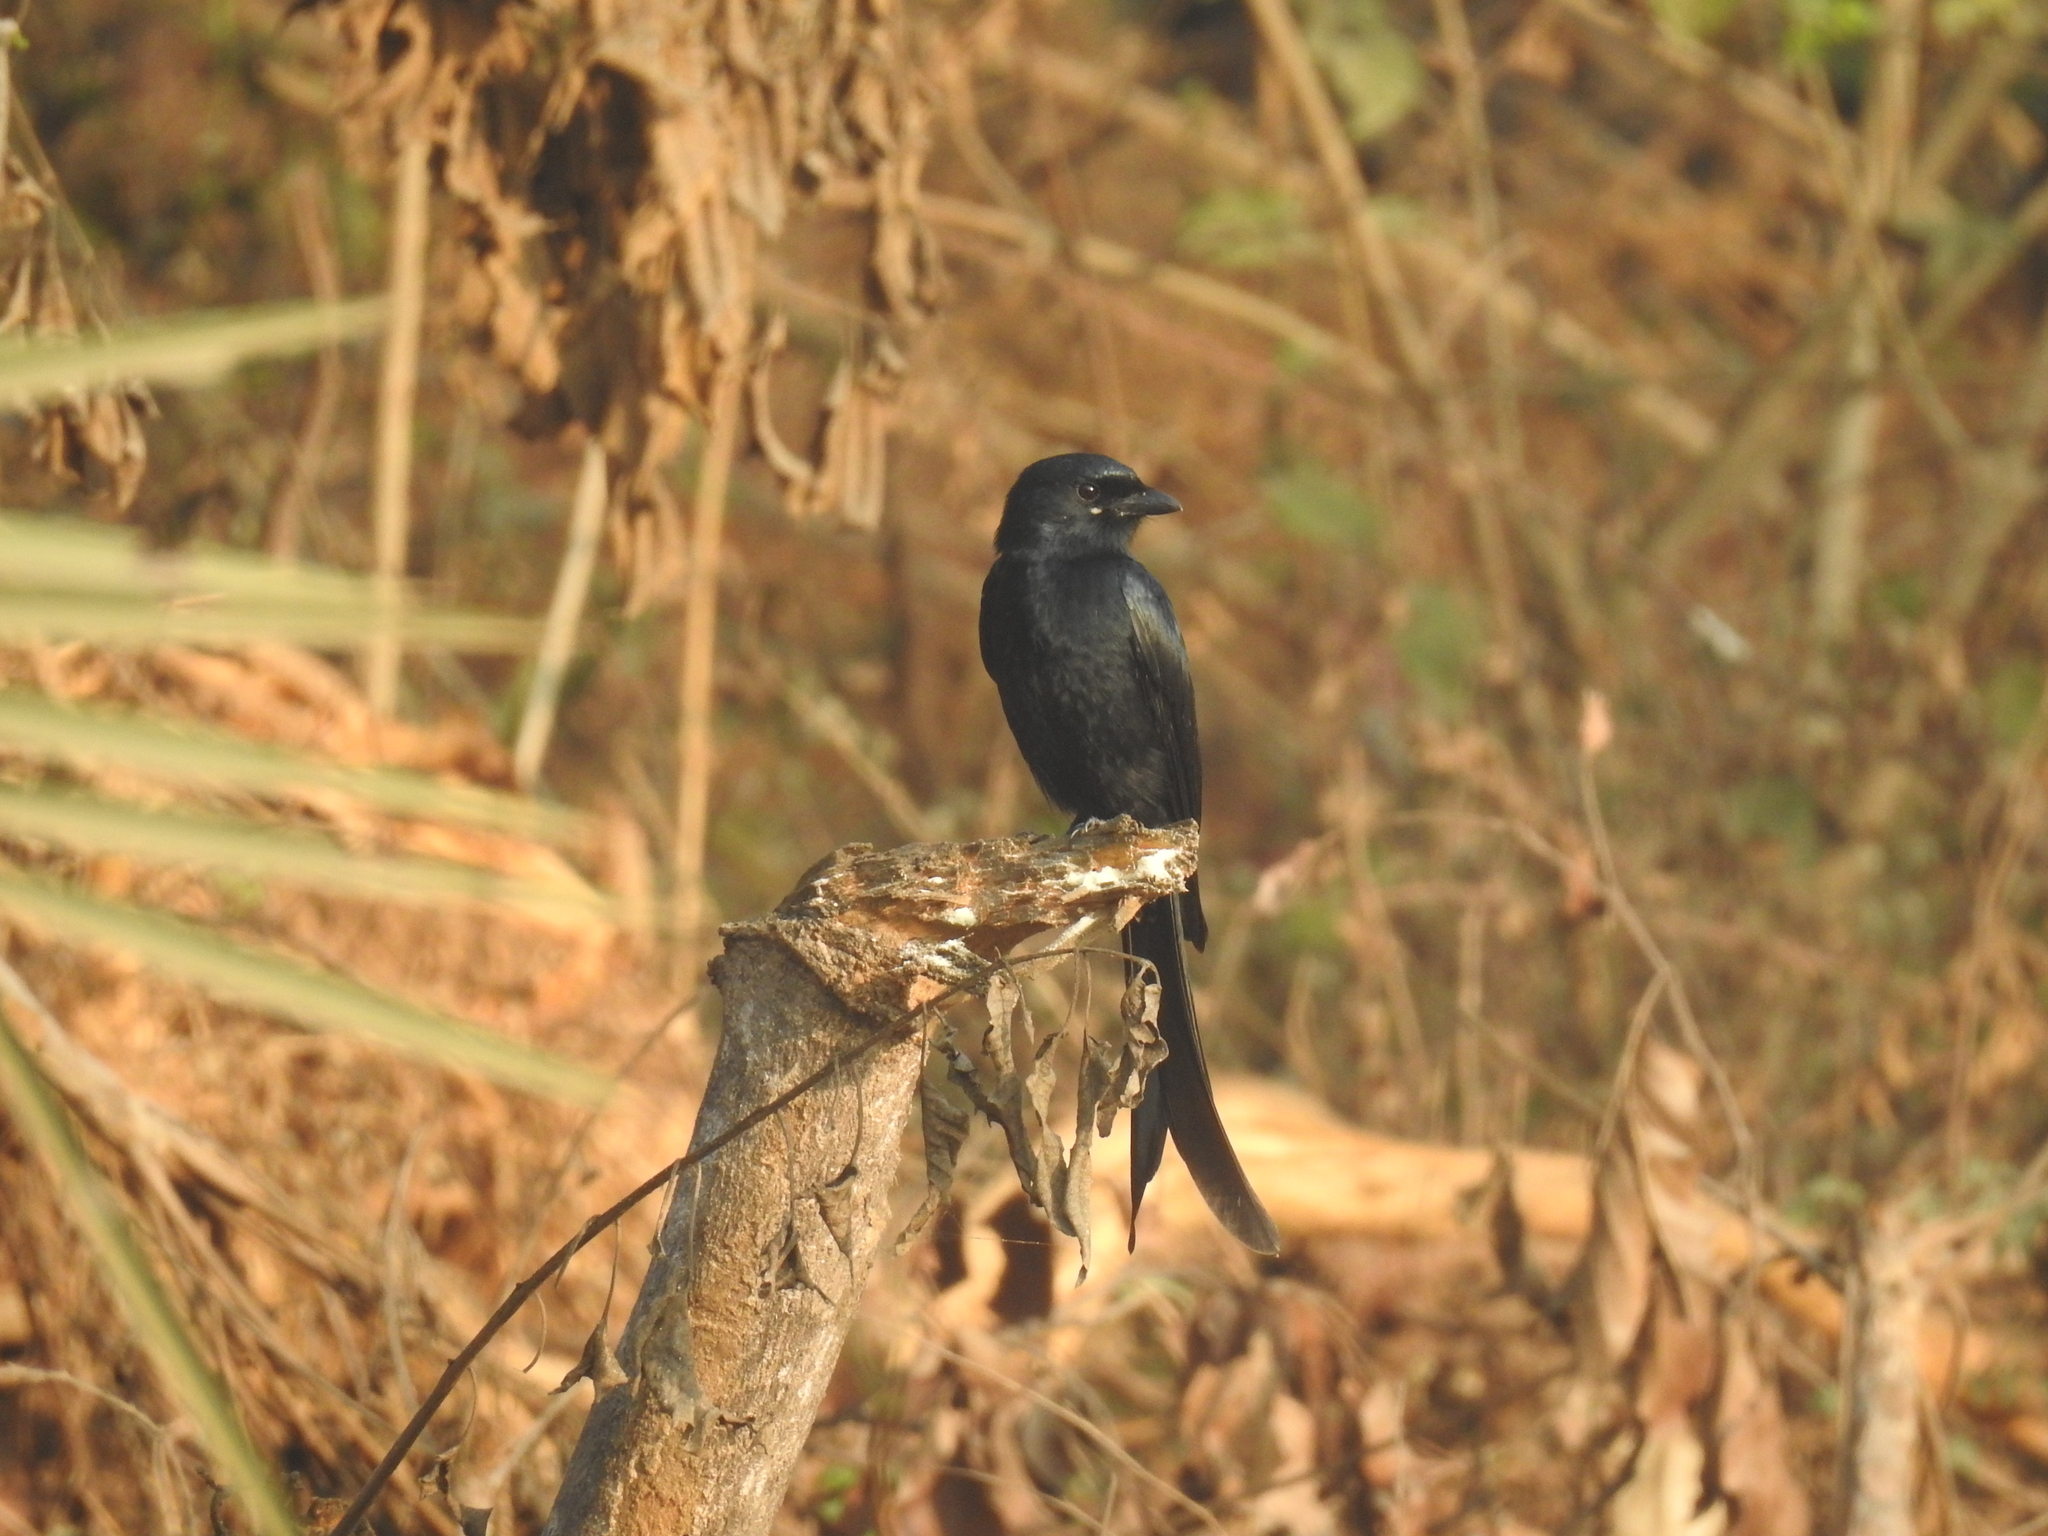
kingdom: Animalia
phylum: Chordata
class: Aves
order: Passeriformes
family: Dicruridae
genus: Dicrurus
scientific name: Dicrurus macrocercus
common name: Black drongo
